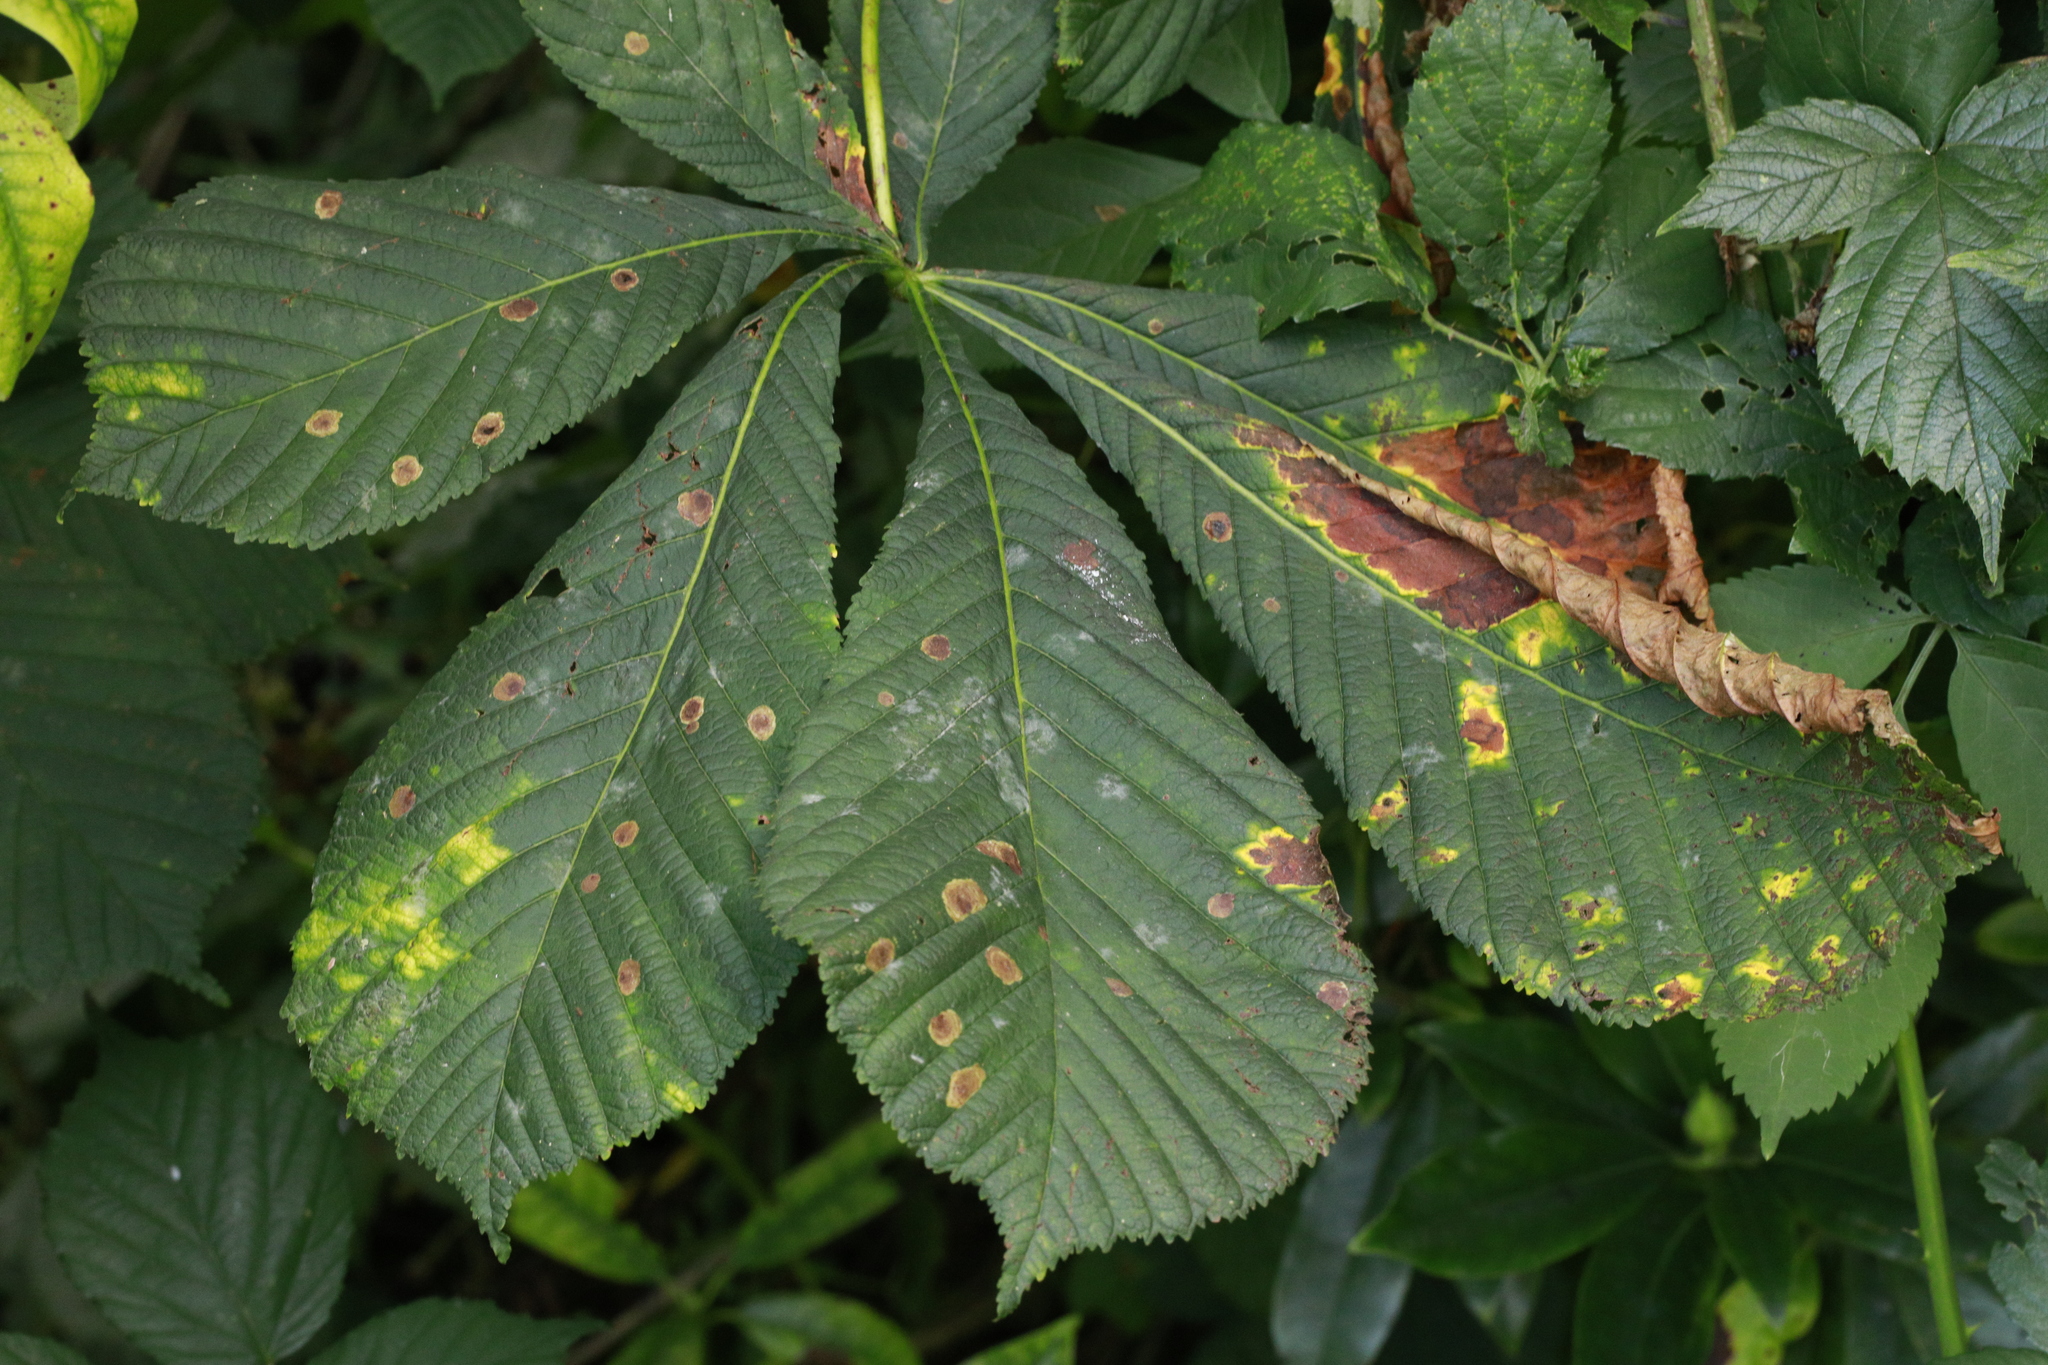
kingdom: Animalia
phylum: Arthropoda
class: Insecta
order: Lepidoptera
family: Gracillariidae
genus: Cameraria
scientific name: Cameraria ohridella
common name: Horse-chestnut leaf-miner
